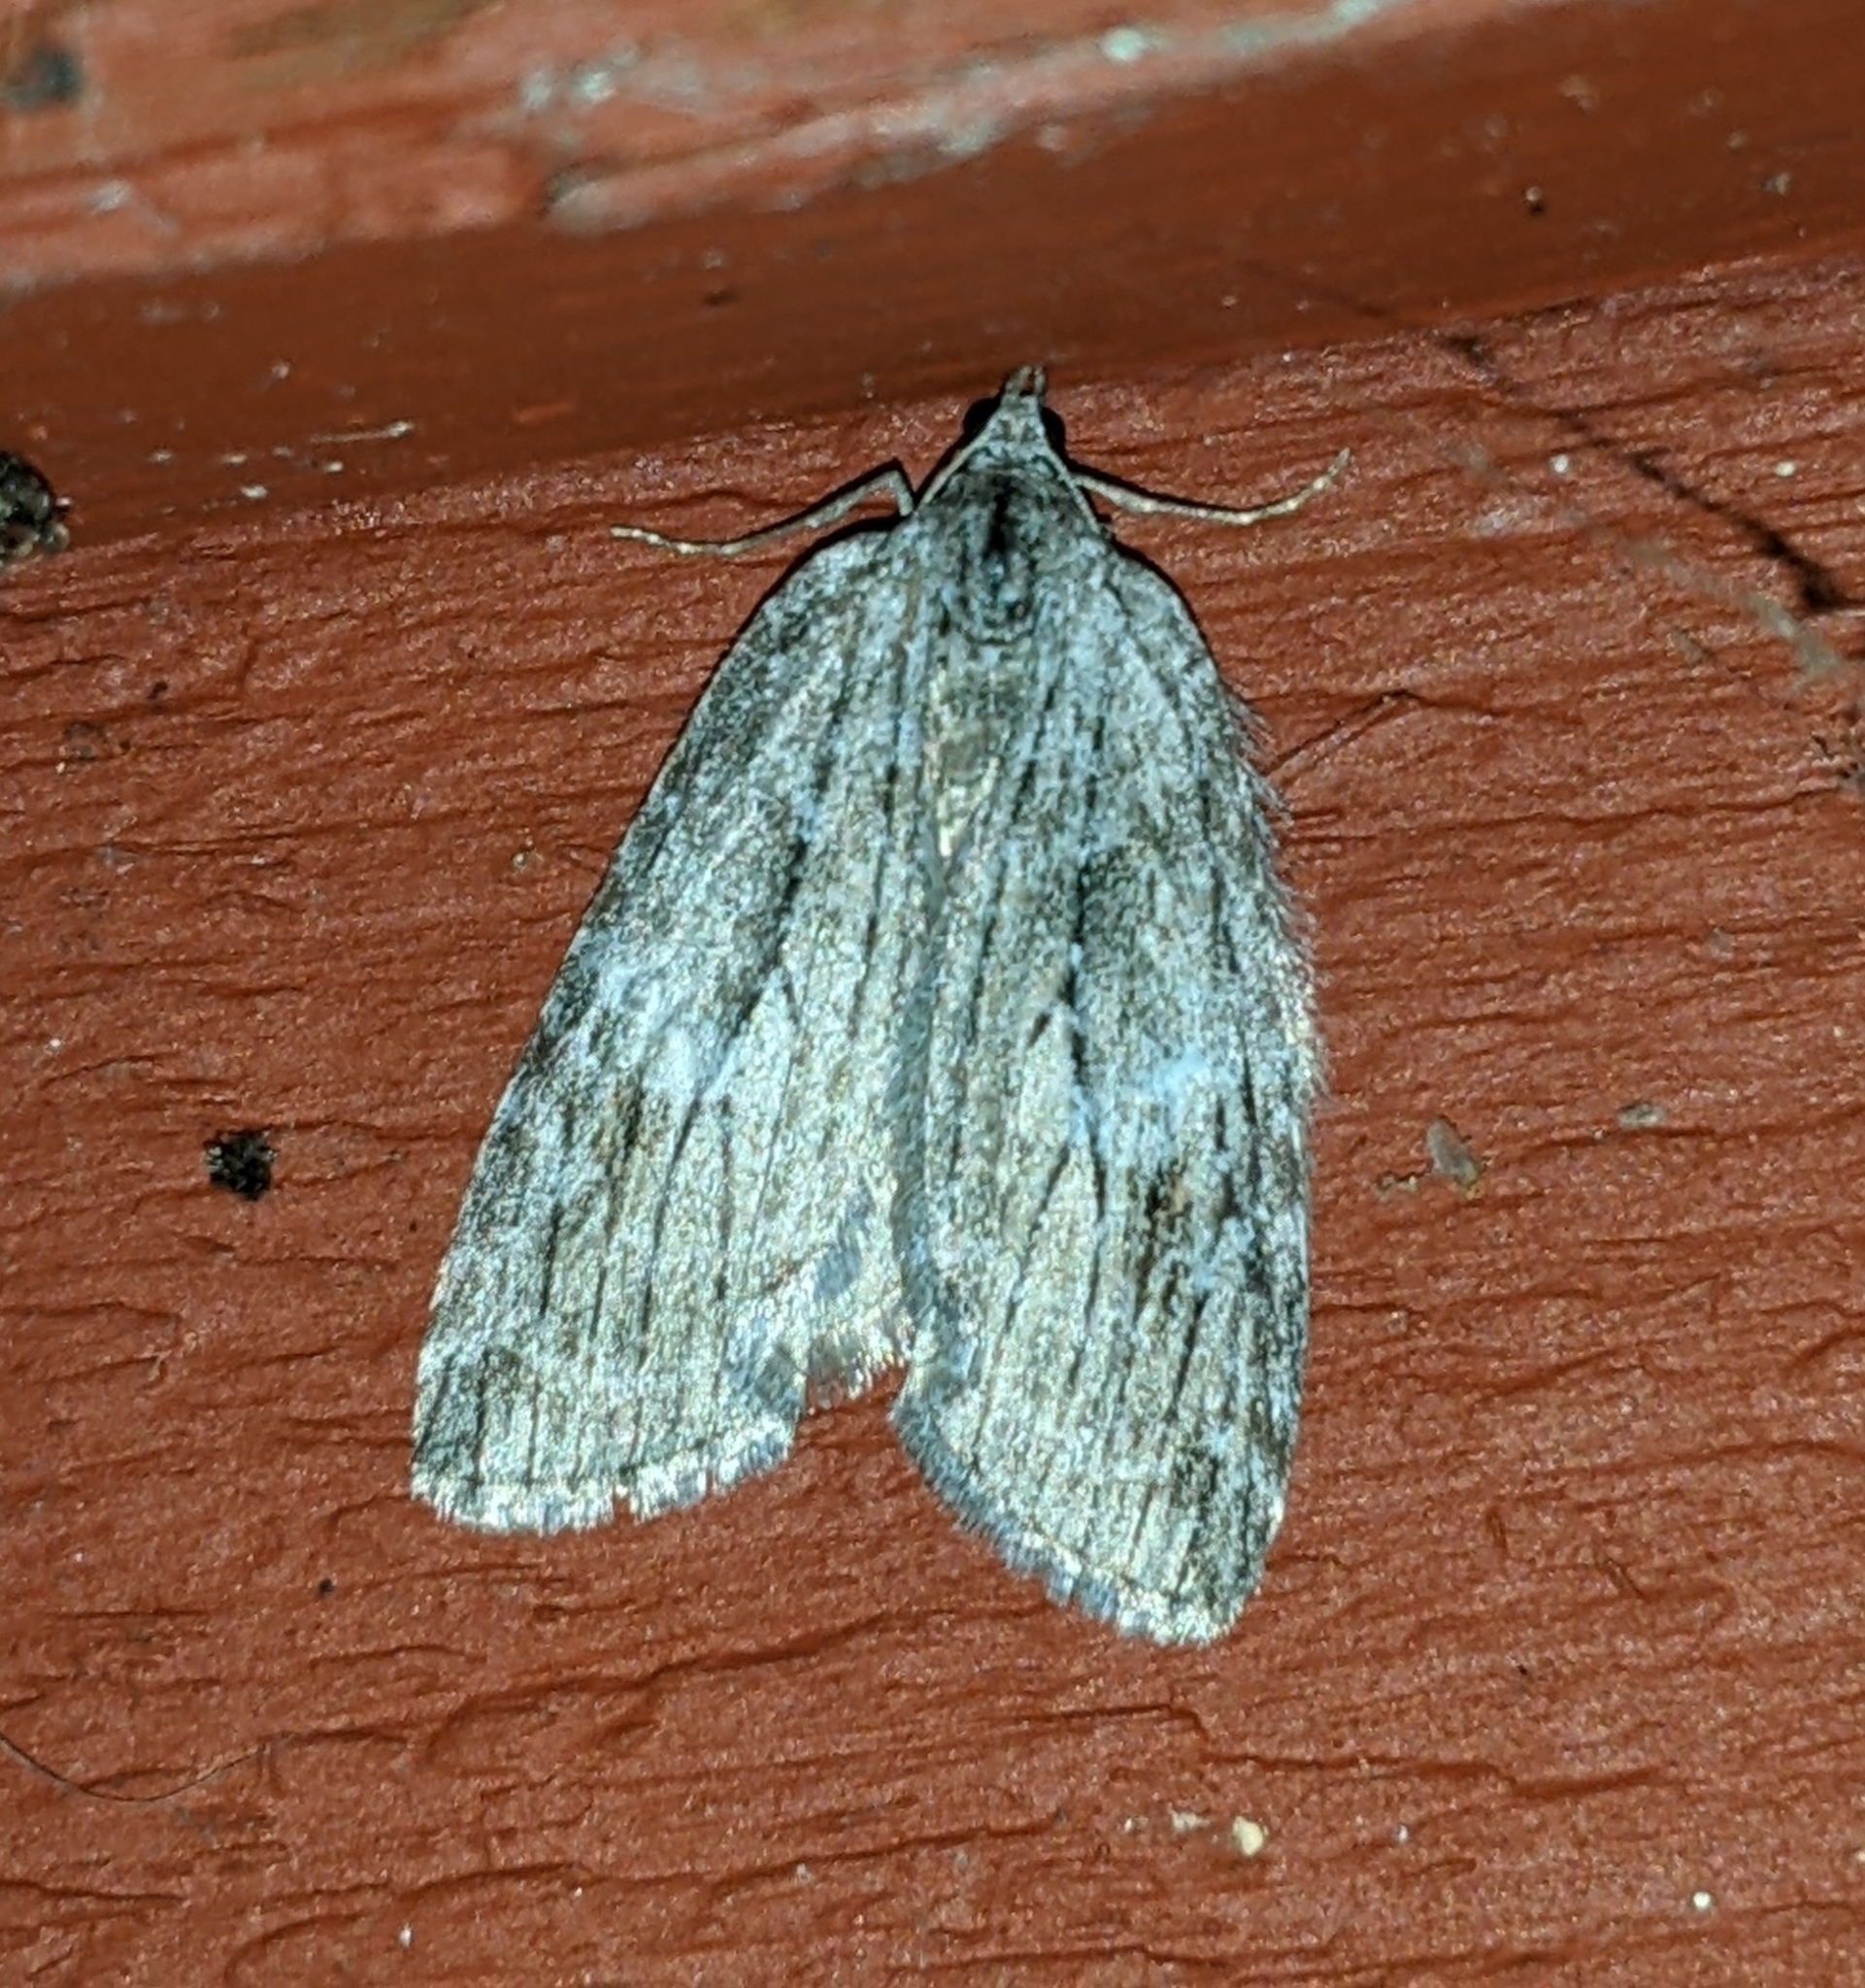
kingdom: Animalia
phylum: Arthropoda
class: Insecta
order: Lepidoptera
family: Geometridae
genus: Hydriomena
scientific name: Hydriomena manzanita
